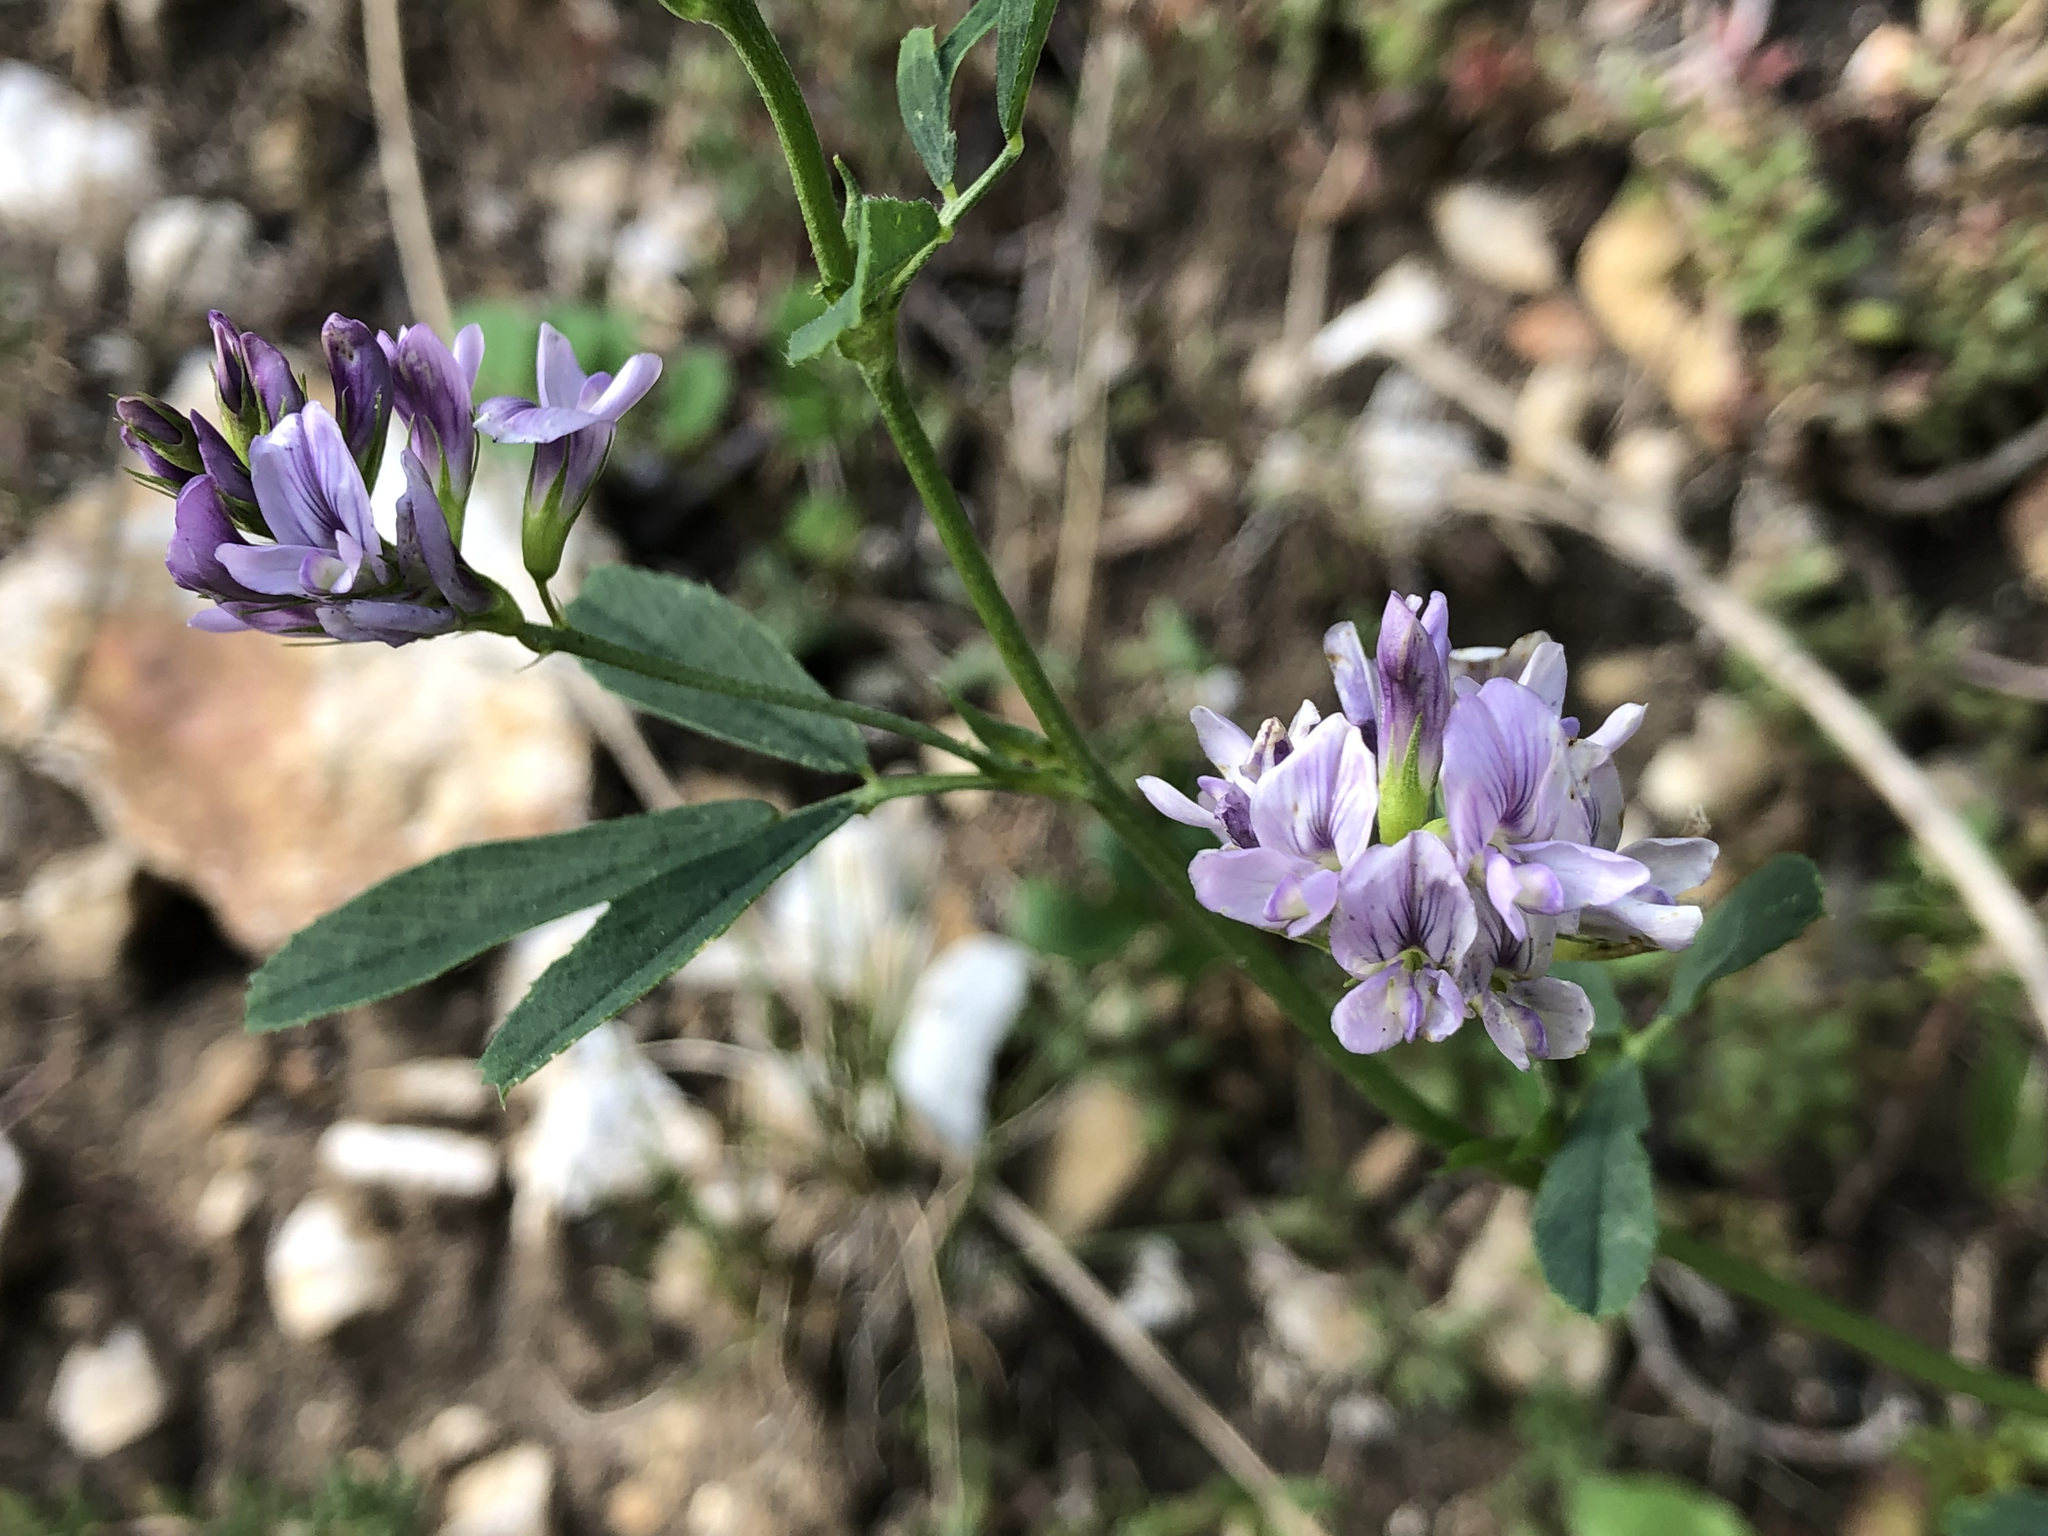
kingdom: Plantae
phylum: Tracheophyta
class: Magnoliopsida
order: Fabales
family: Fabaceae
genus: Medicago
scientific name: Medicago sativa
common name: Alfalfa
